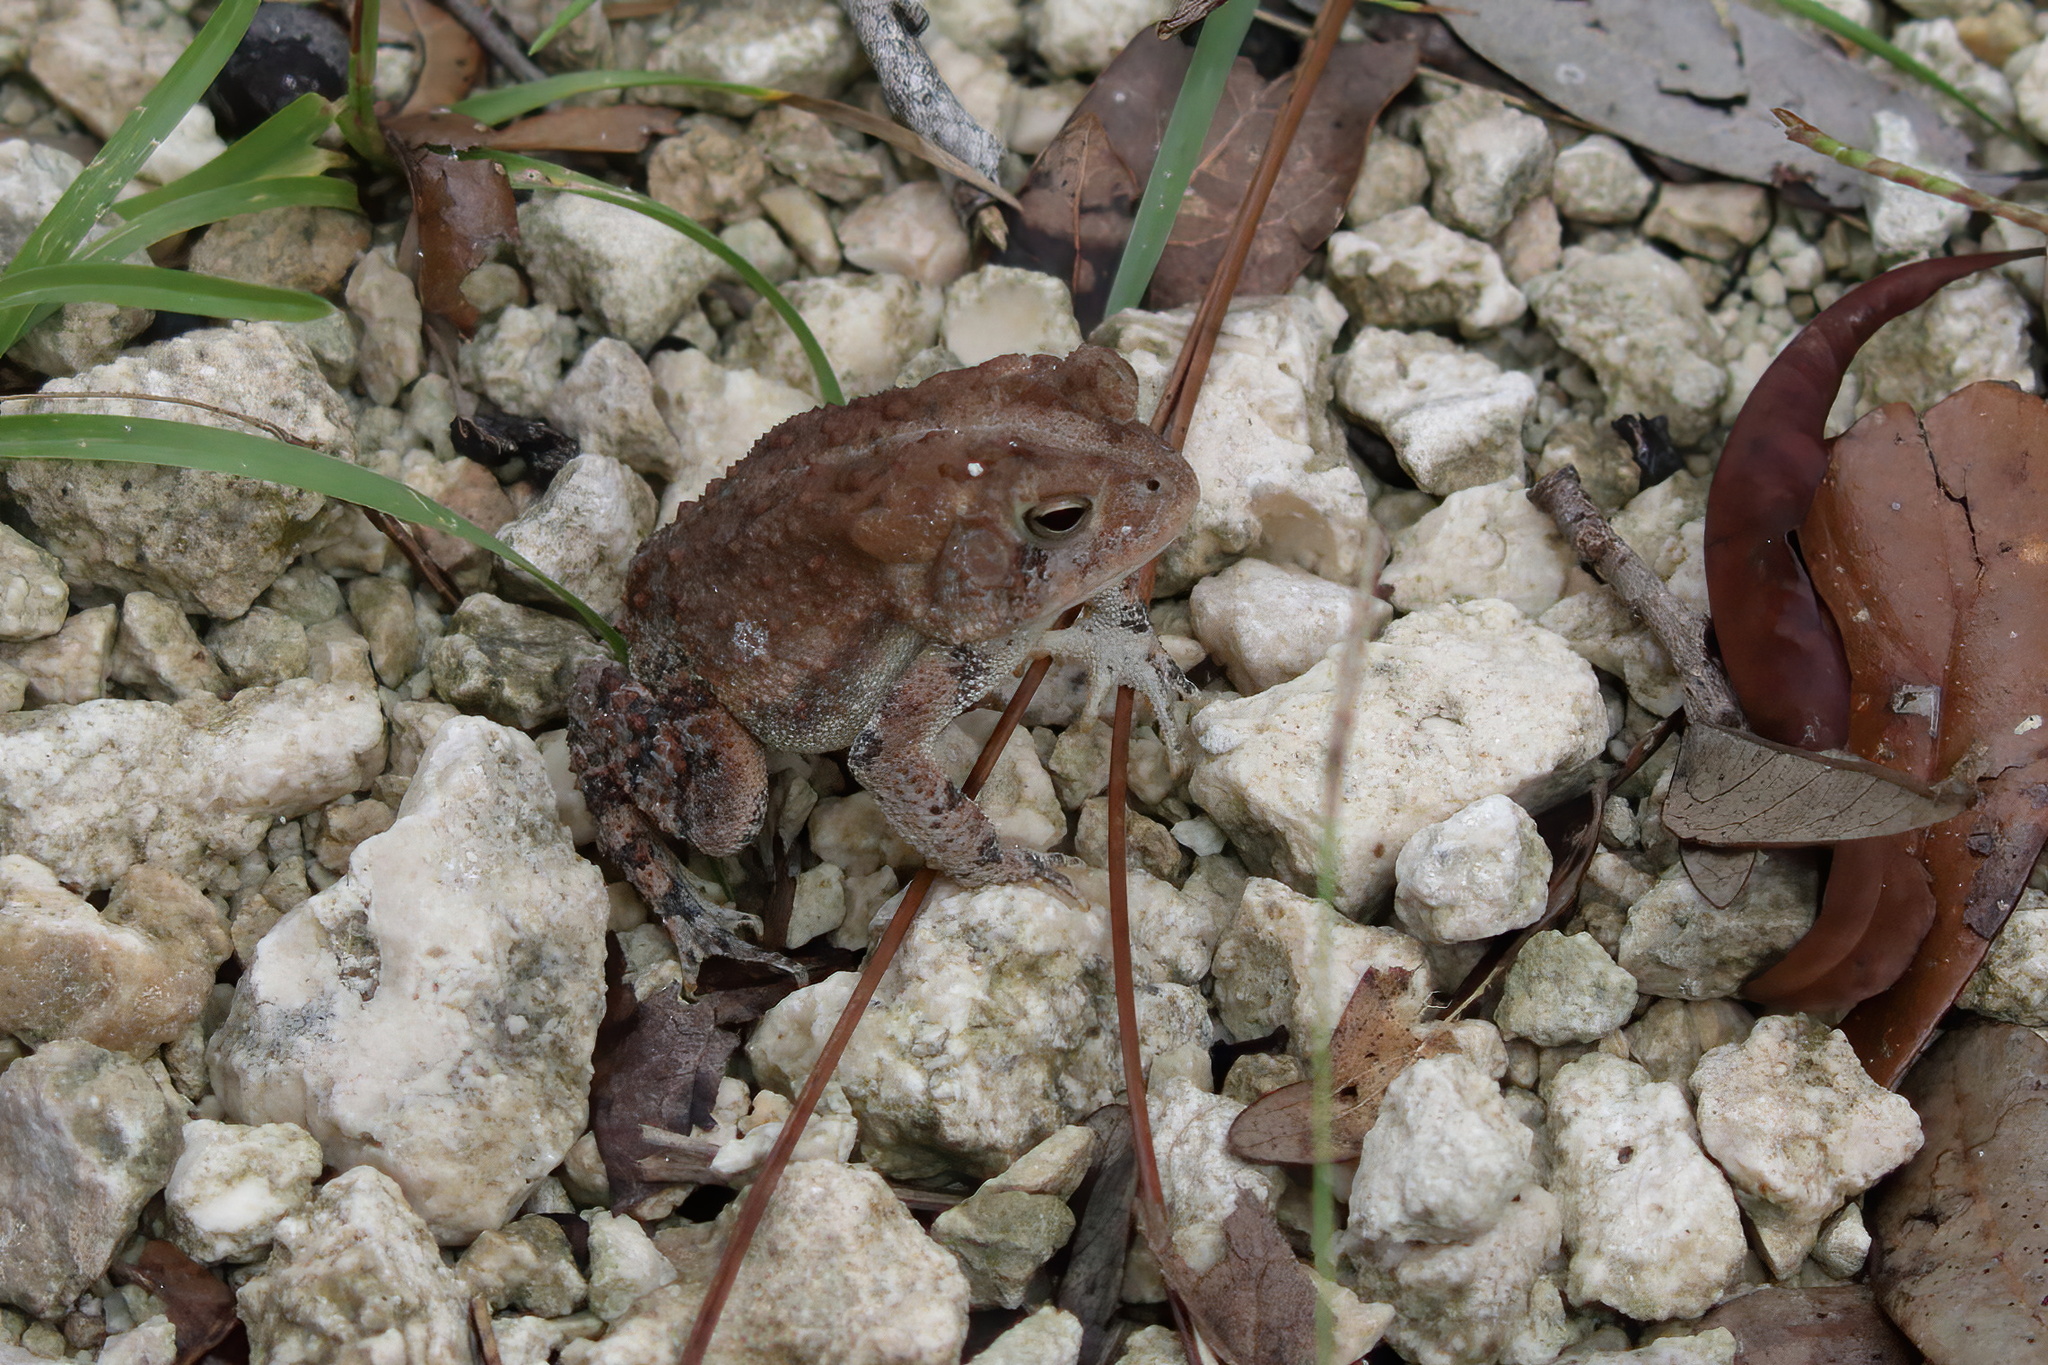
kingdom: Animalia
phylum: Chordata
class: Amphibia
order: Anura
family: Bufonidae
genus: Anaxyrus
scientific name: Anaxyrus terrestris
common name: Southern toad
